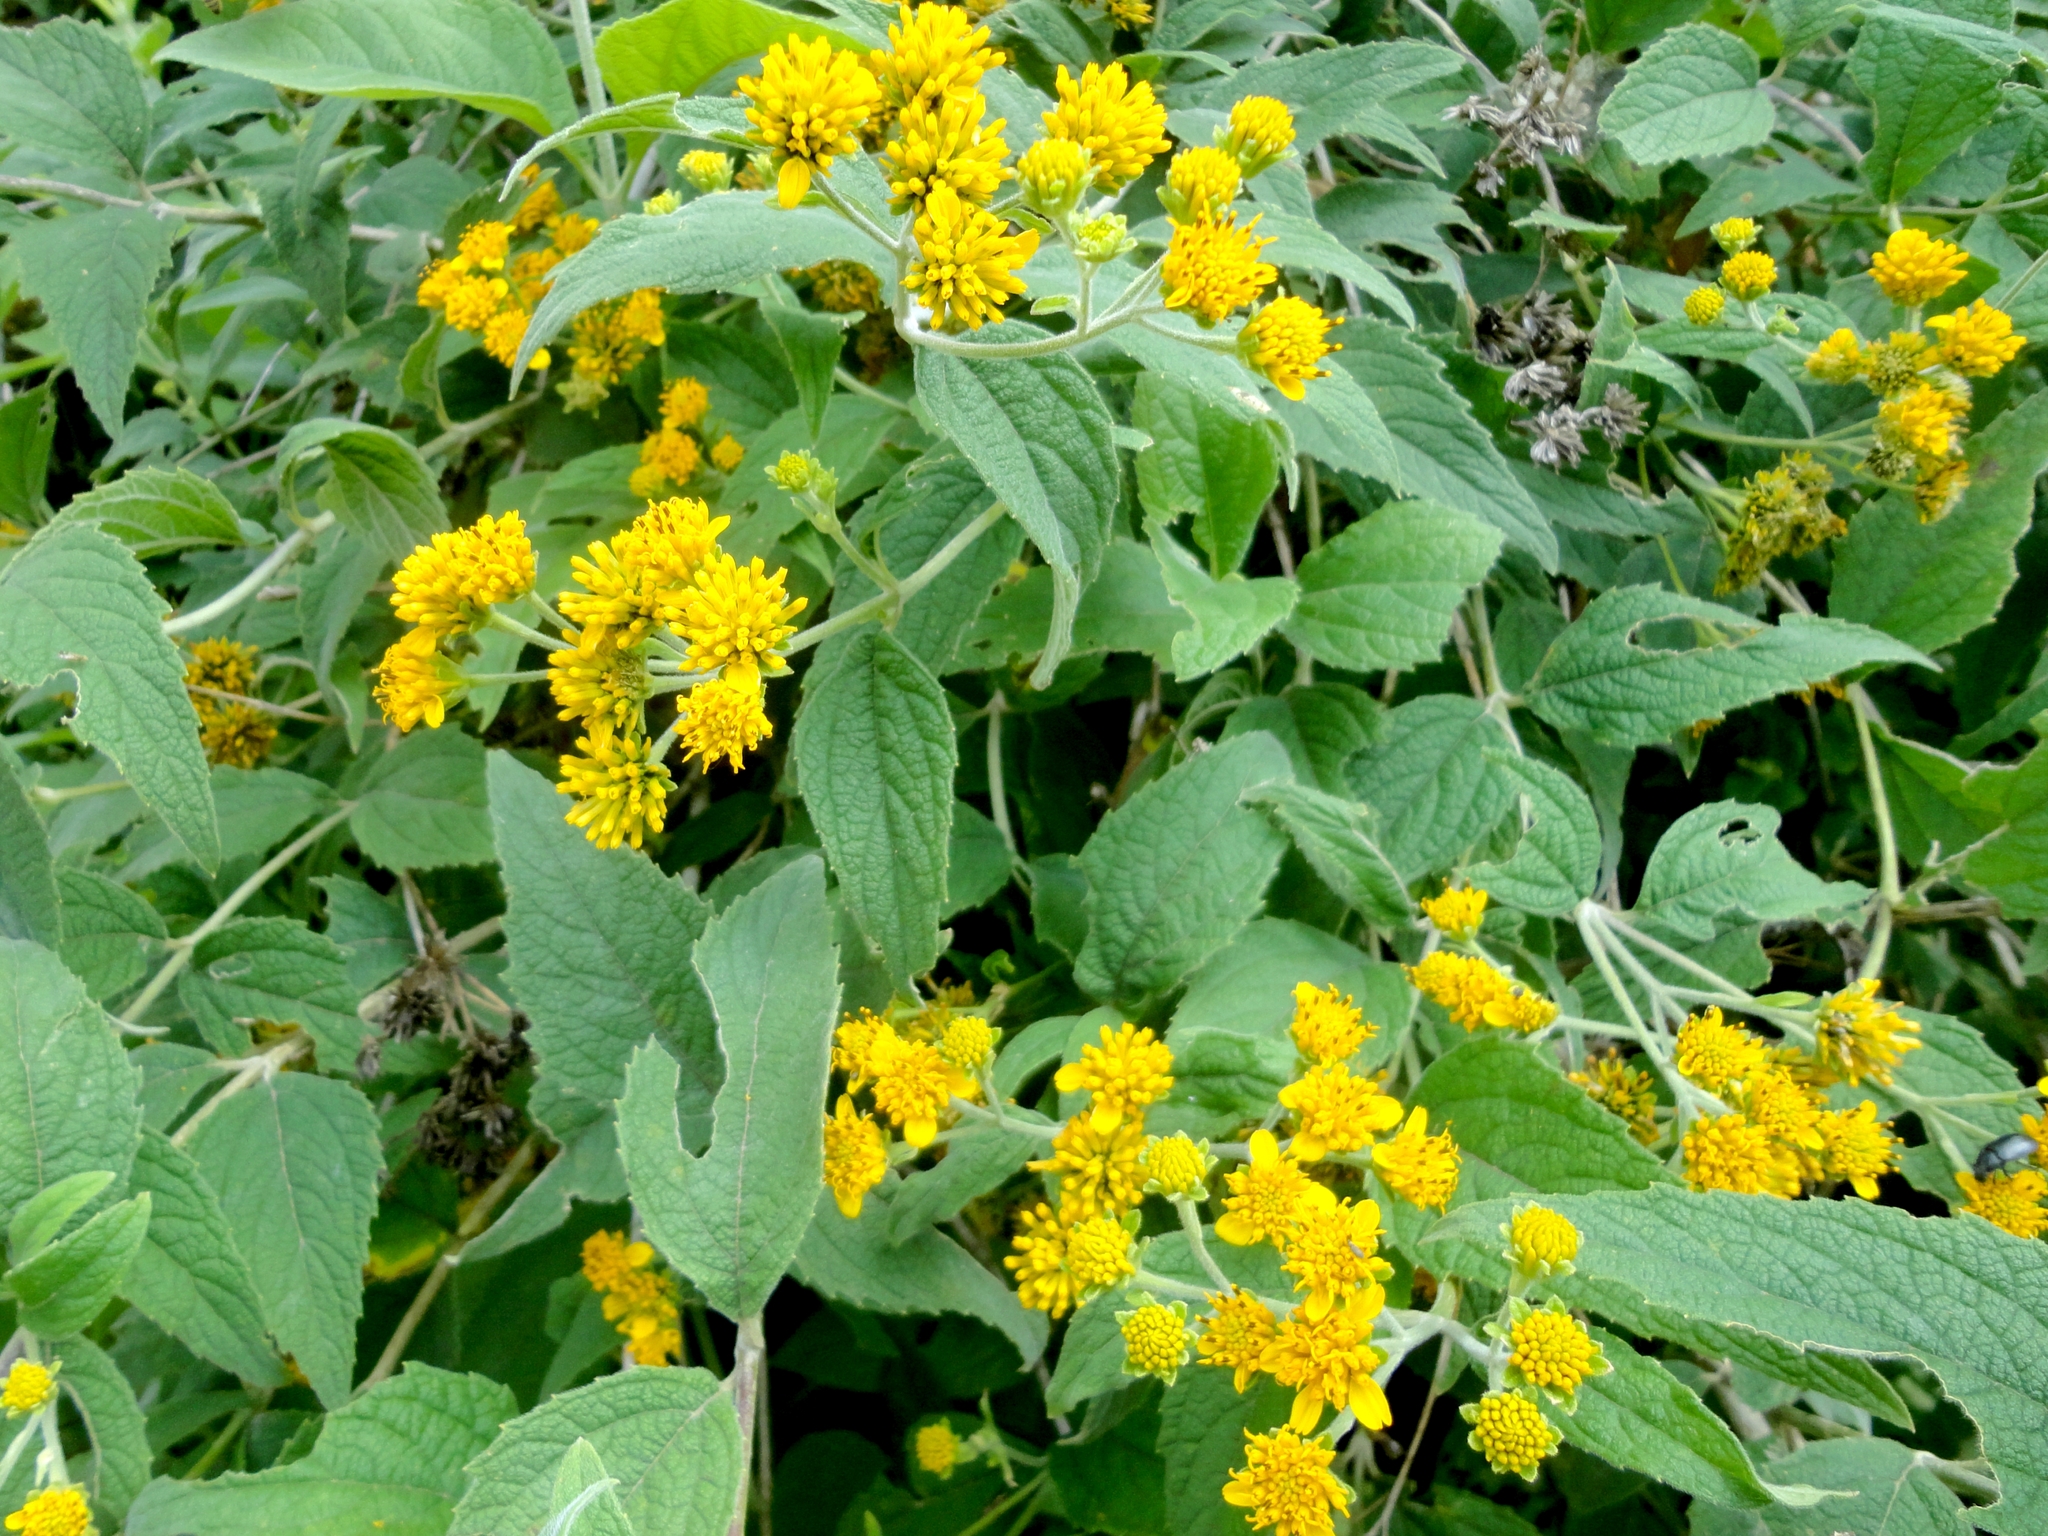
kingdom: Plantae
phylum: Tracheophyta
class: Magnoliopsida
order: Asterales
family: Asteraceae
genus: Verbesina
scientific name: Verbesina serrata
